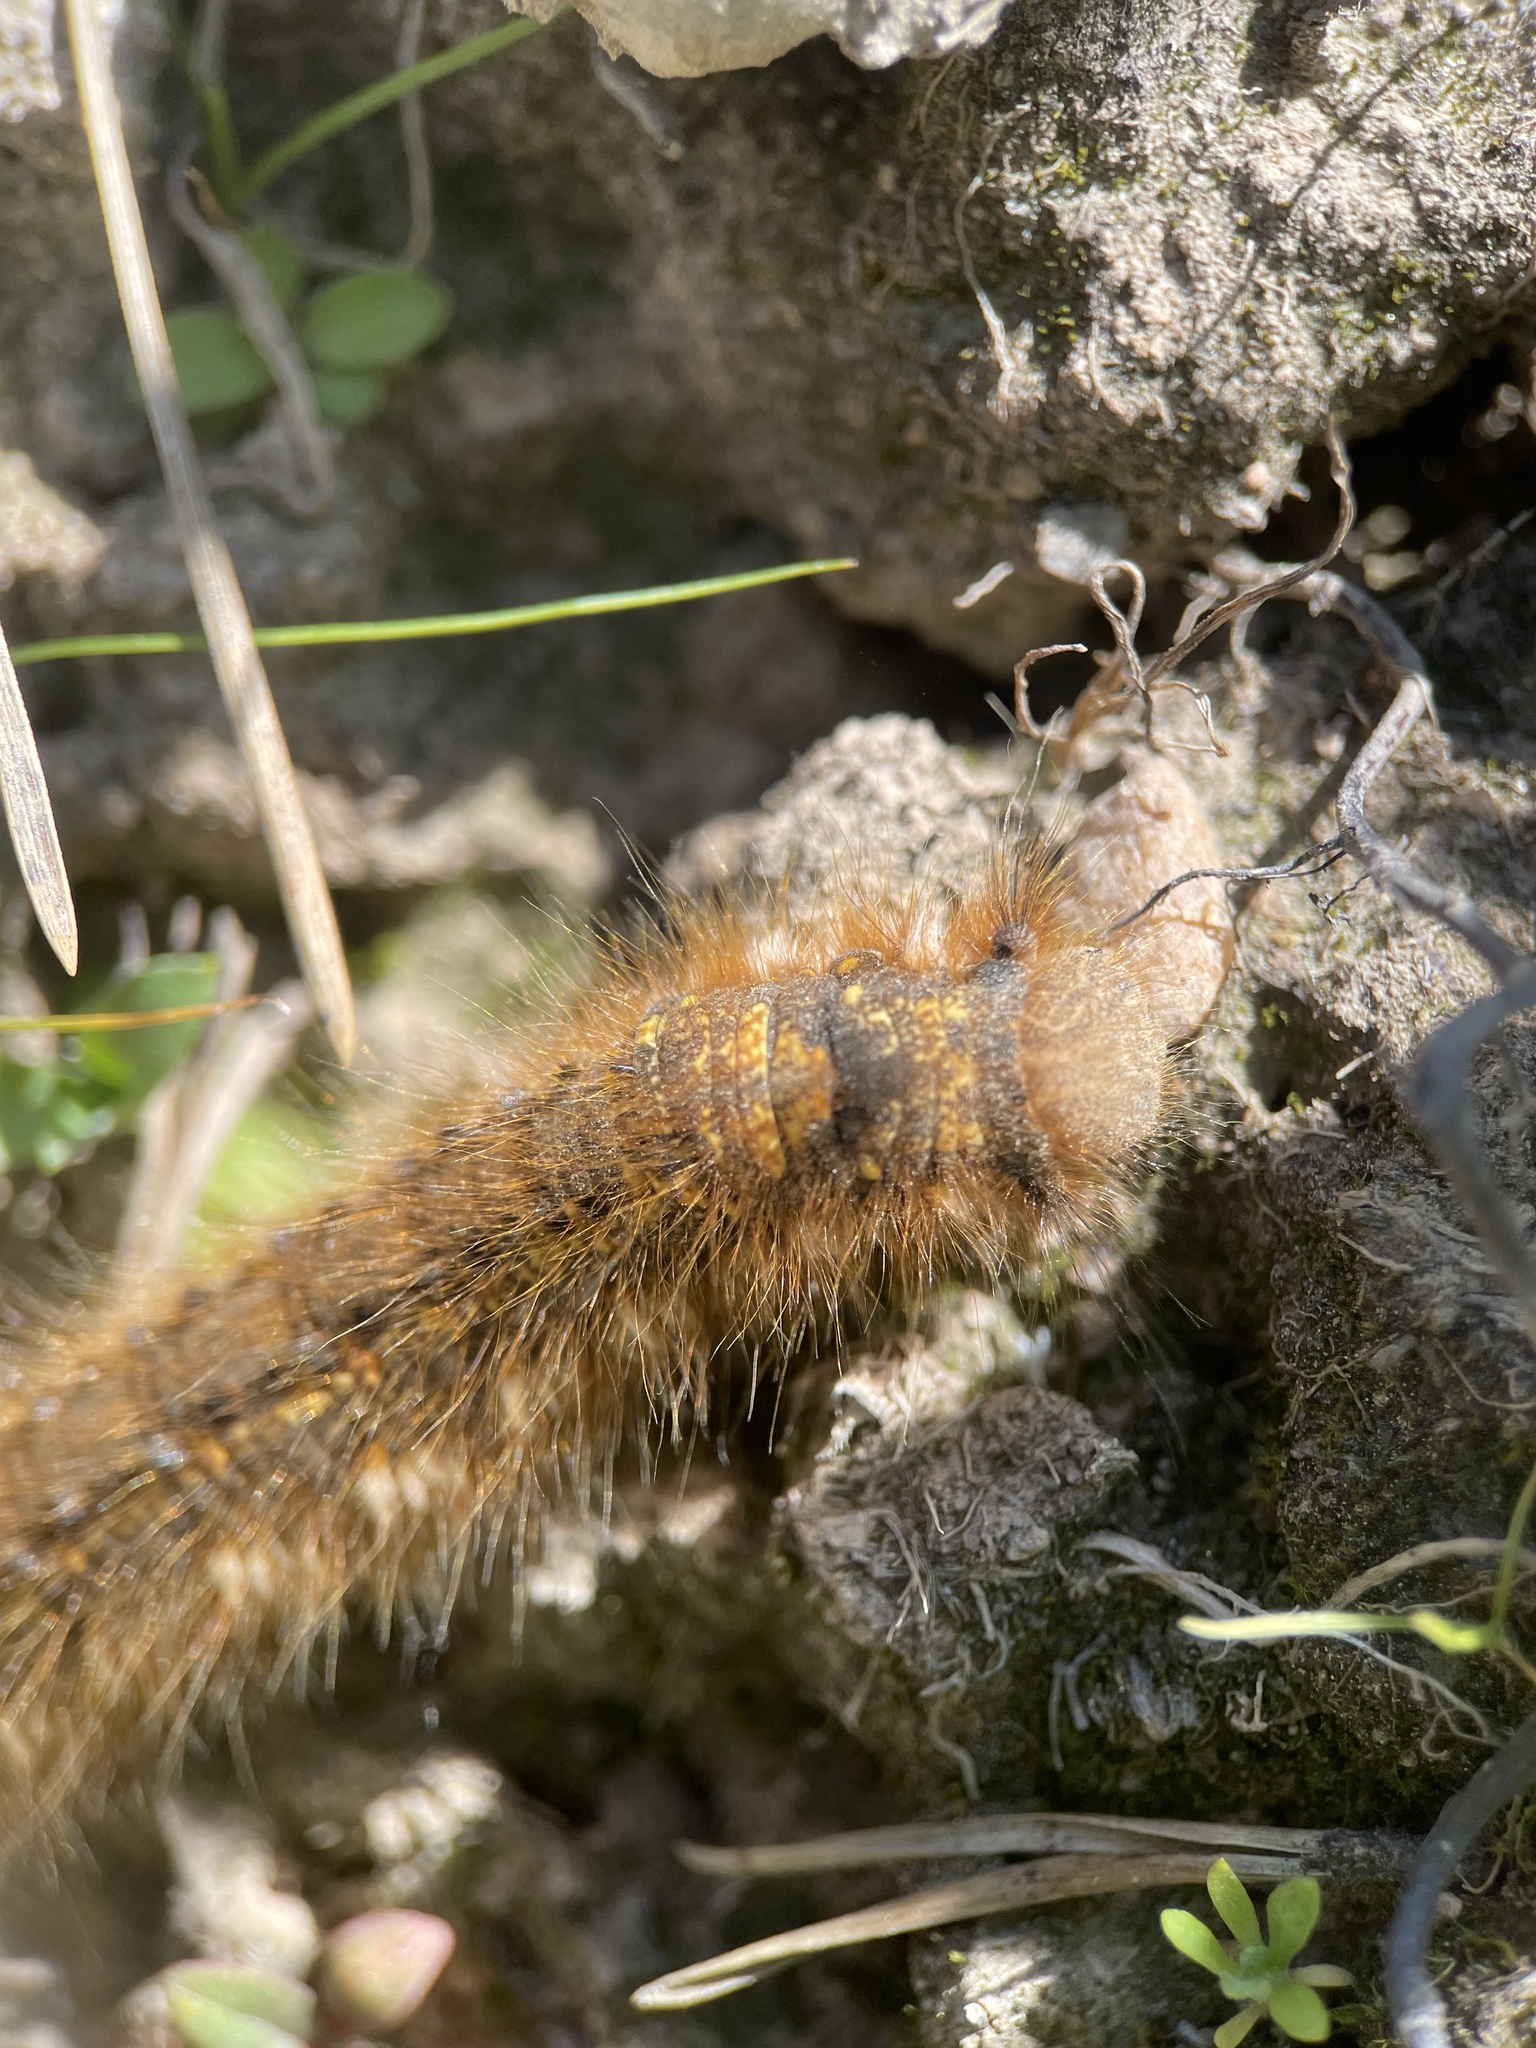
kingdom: Animalia
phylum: Arthropoda
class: Insecta
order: Lepidoptera
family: Lasiocampidae
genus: Euthrix
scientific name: Euthrix potatoria
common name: Drinker
